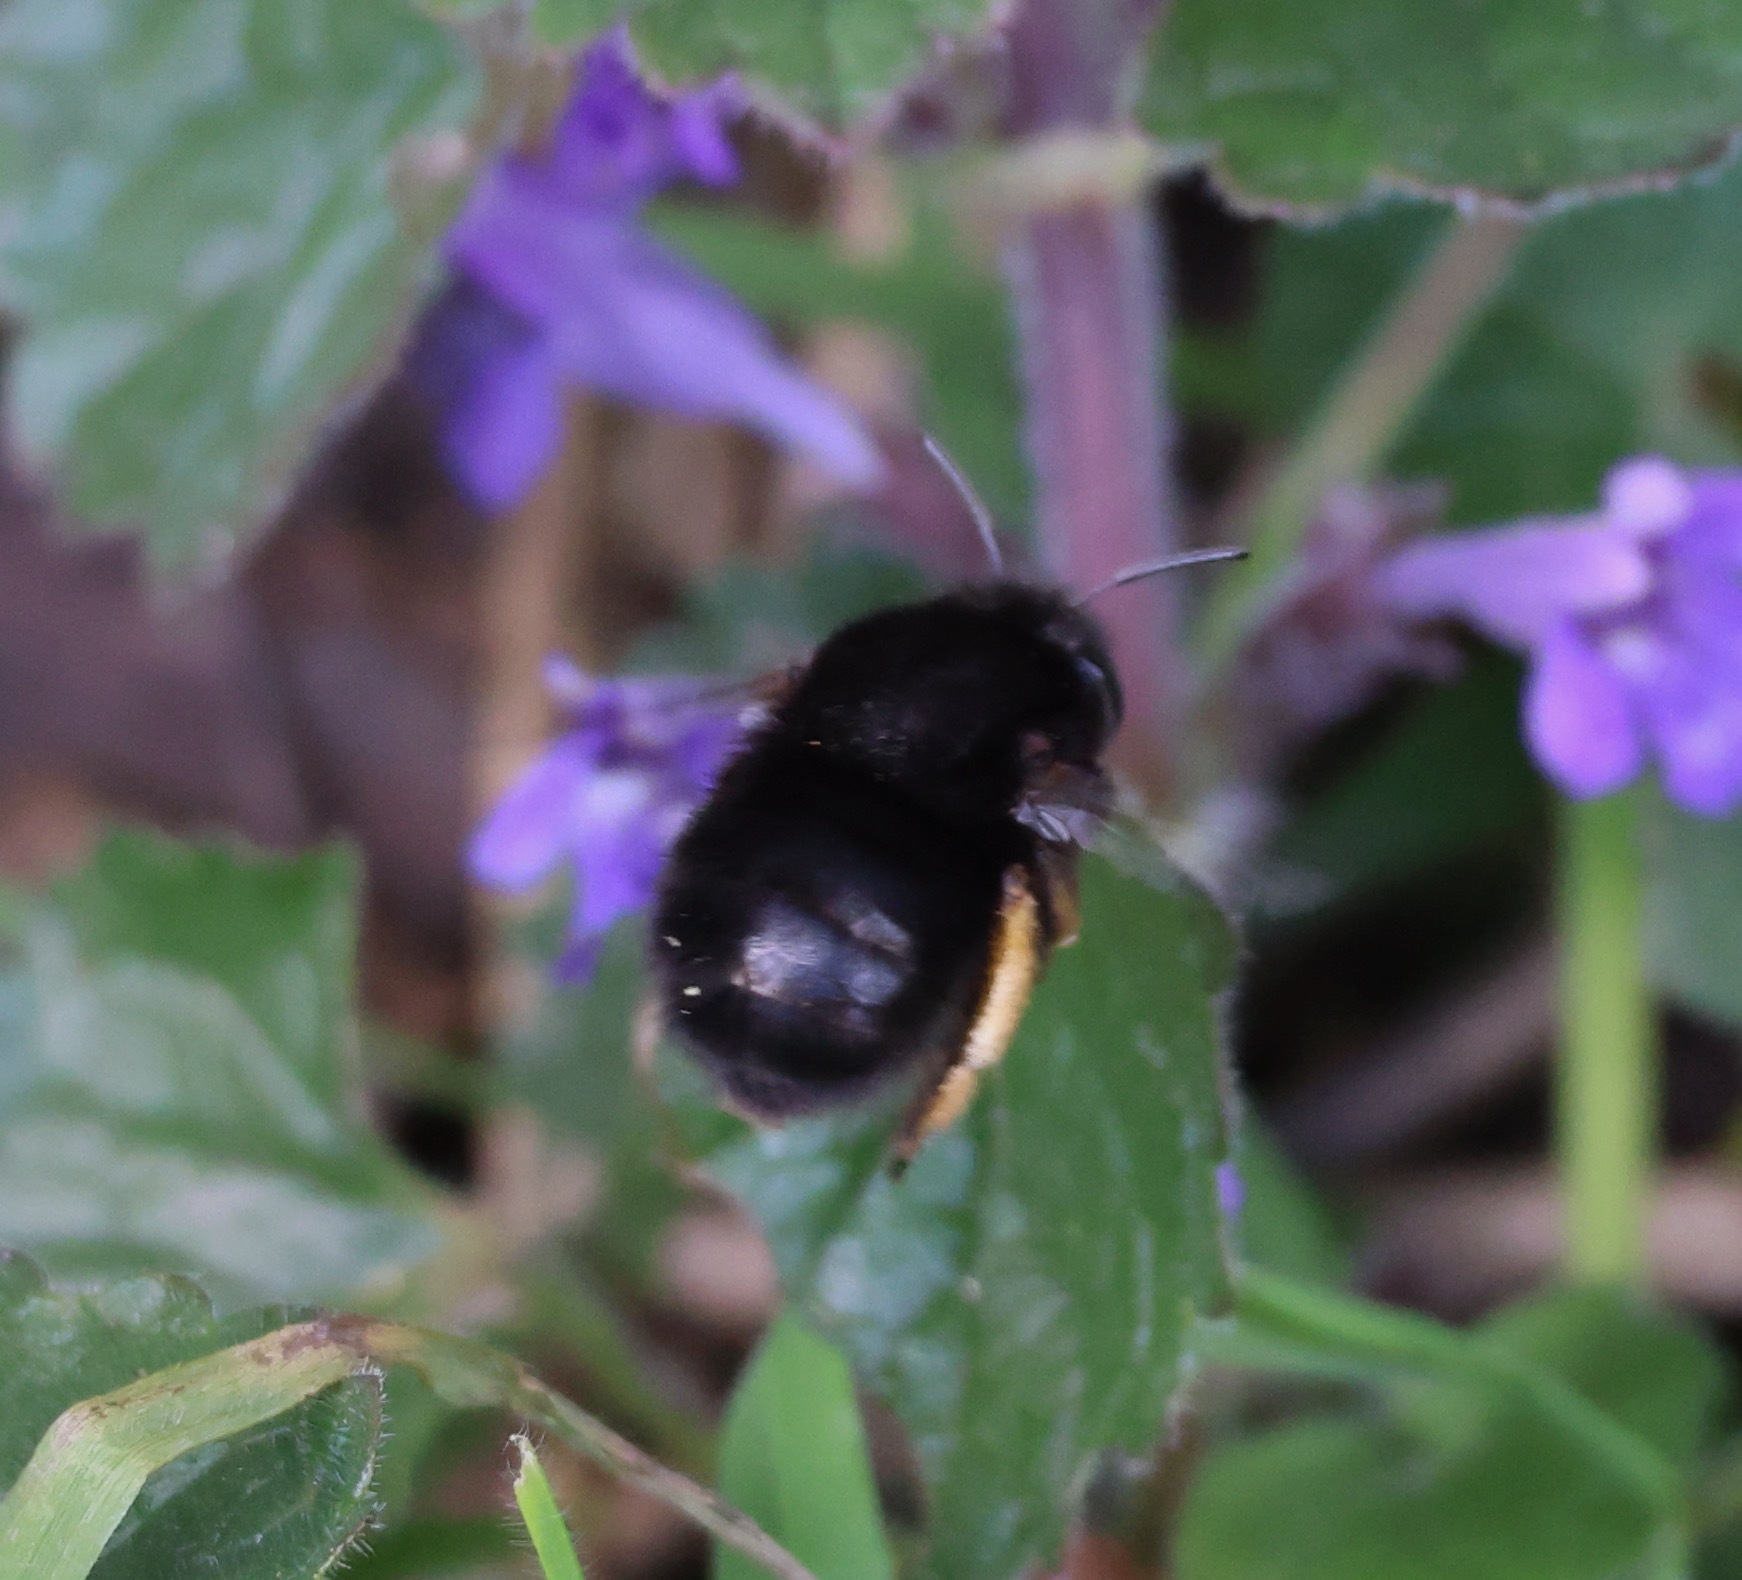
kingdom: Animalia
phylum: Arthropoda
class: Insecta
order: Hymenoptera
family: Apidae
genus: Anthophora
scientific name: Anthophora plumipes
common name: Hairy-footed flower bee
